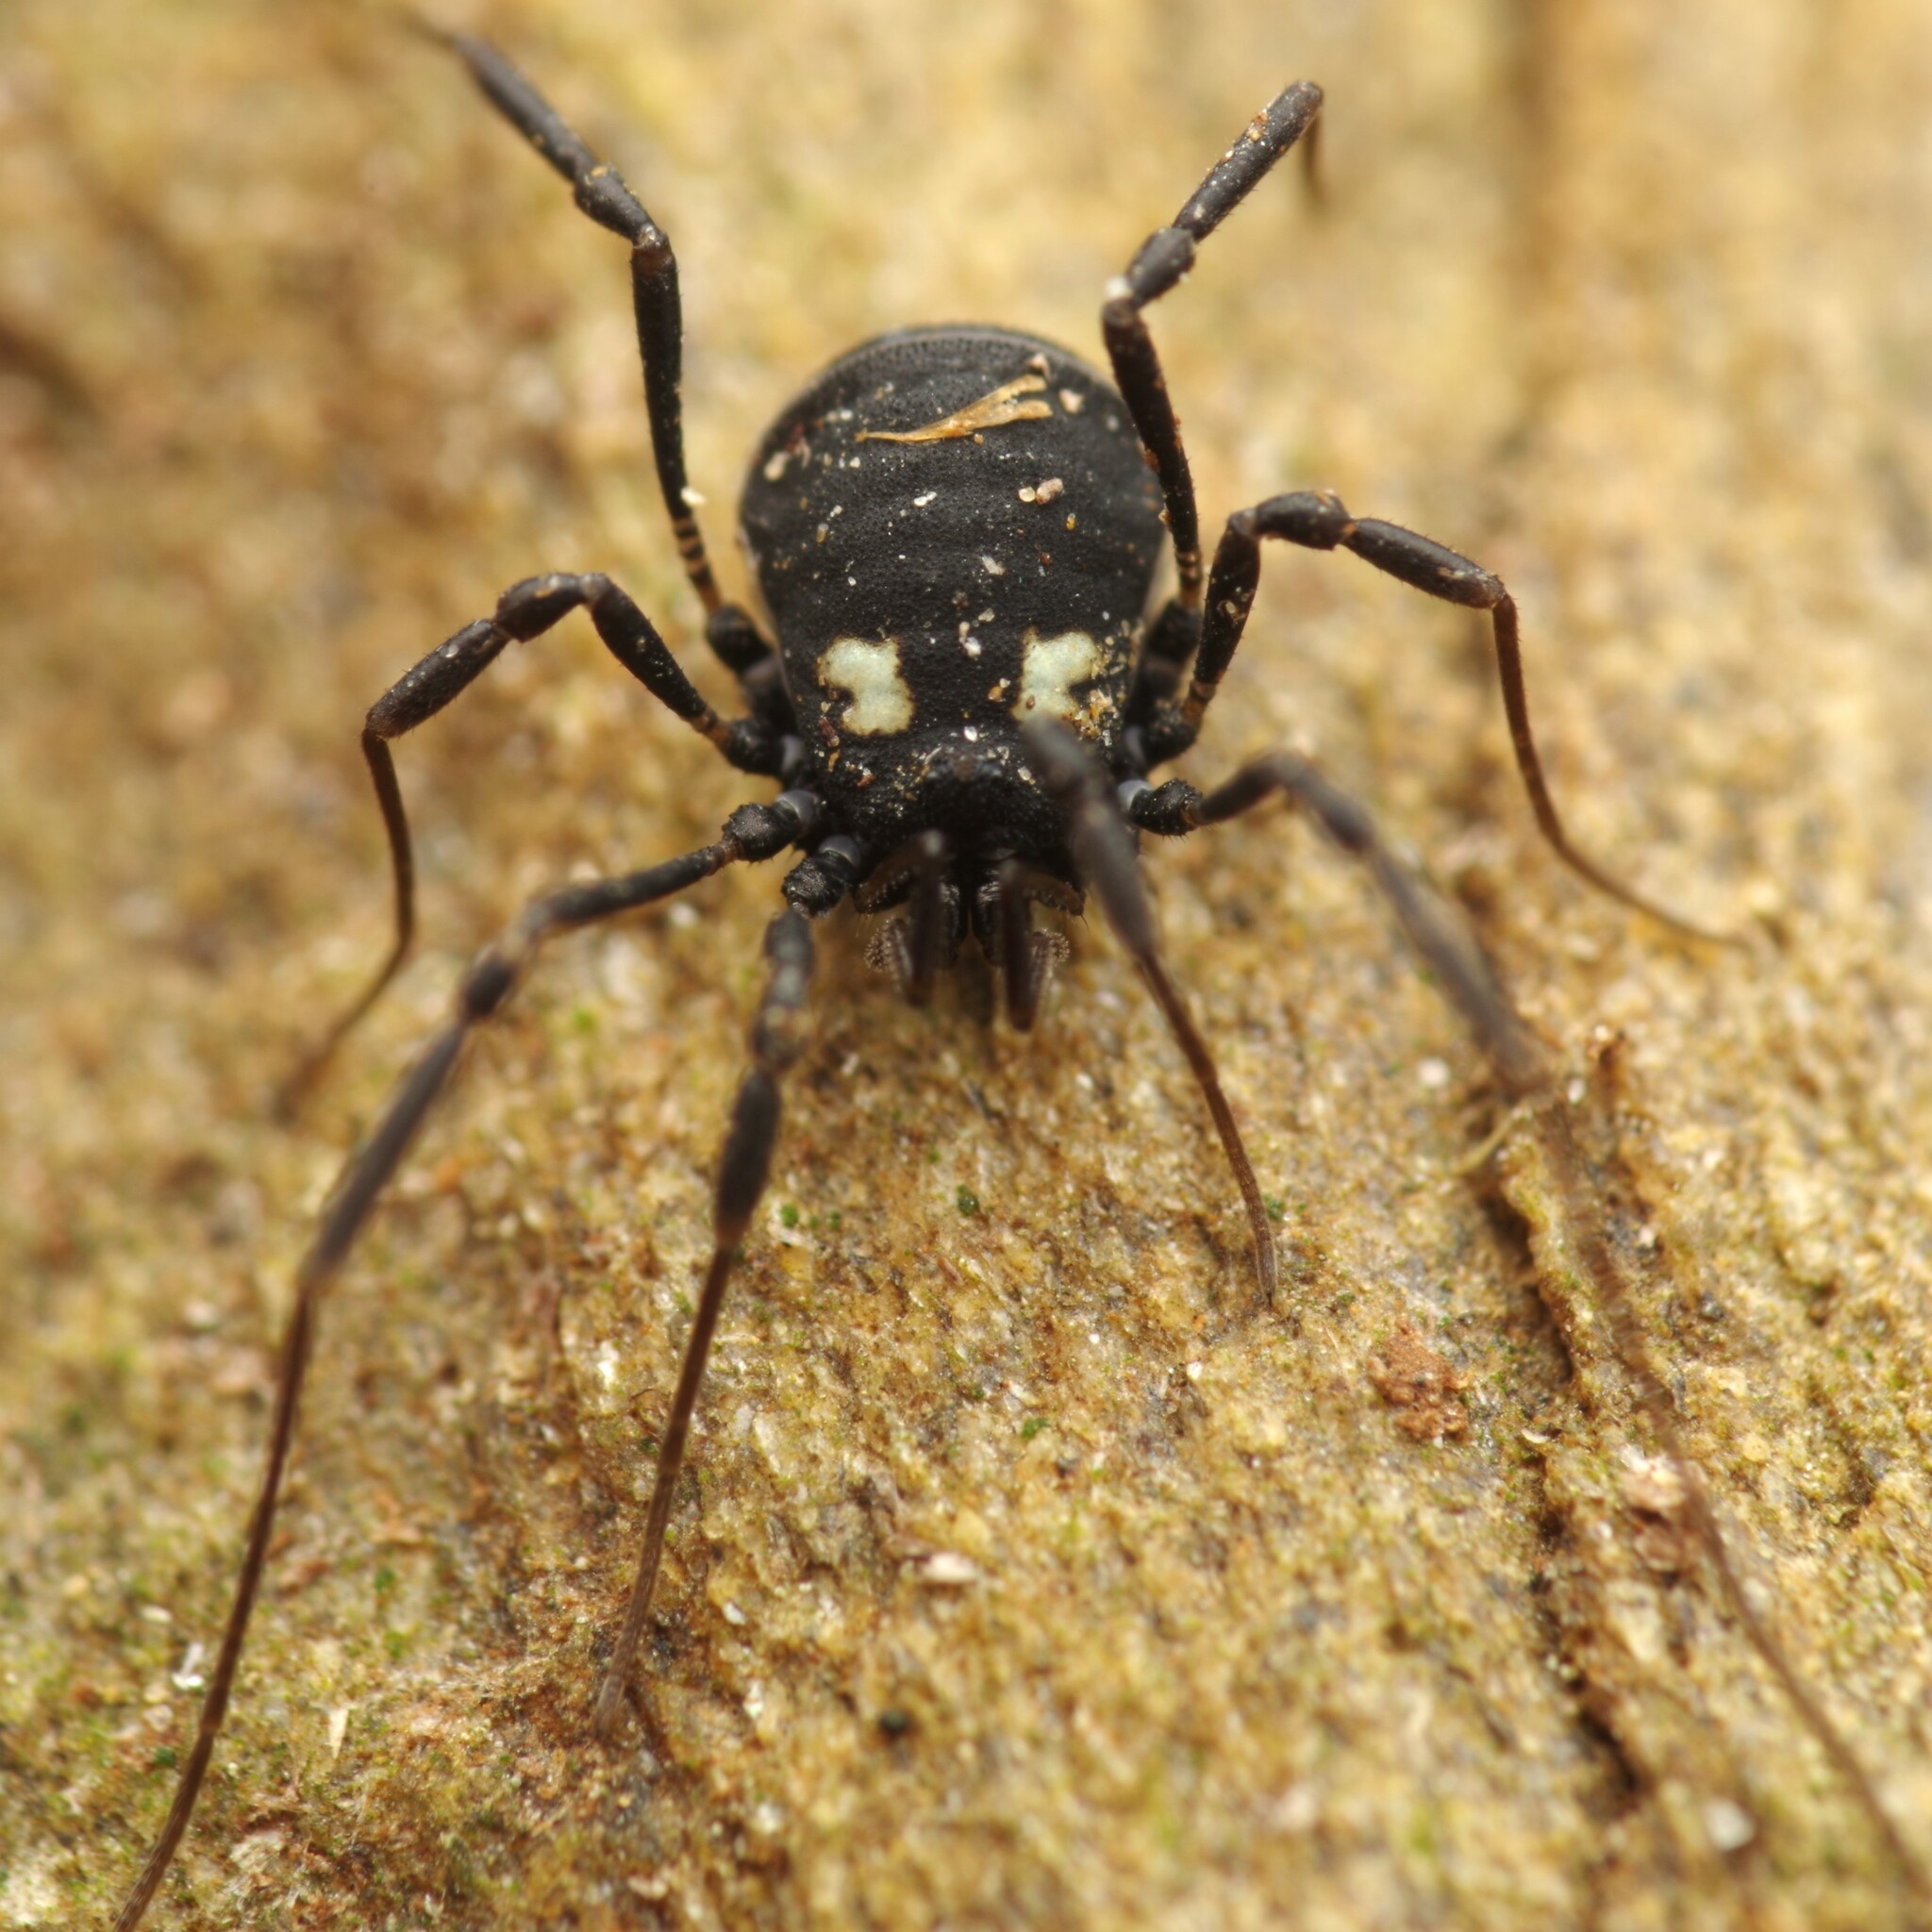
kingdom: Animalia
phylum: Arthropoda
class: Arachnida
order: Opiliones
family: Nemastomatidae
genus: Nemastoma
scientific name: Nemastoma bimaculatum
